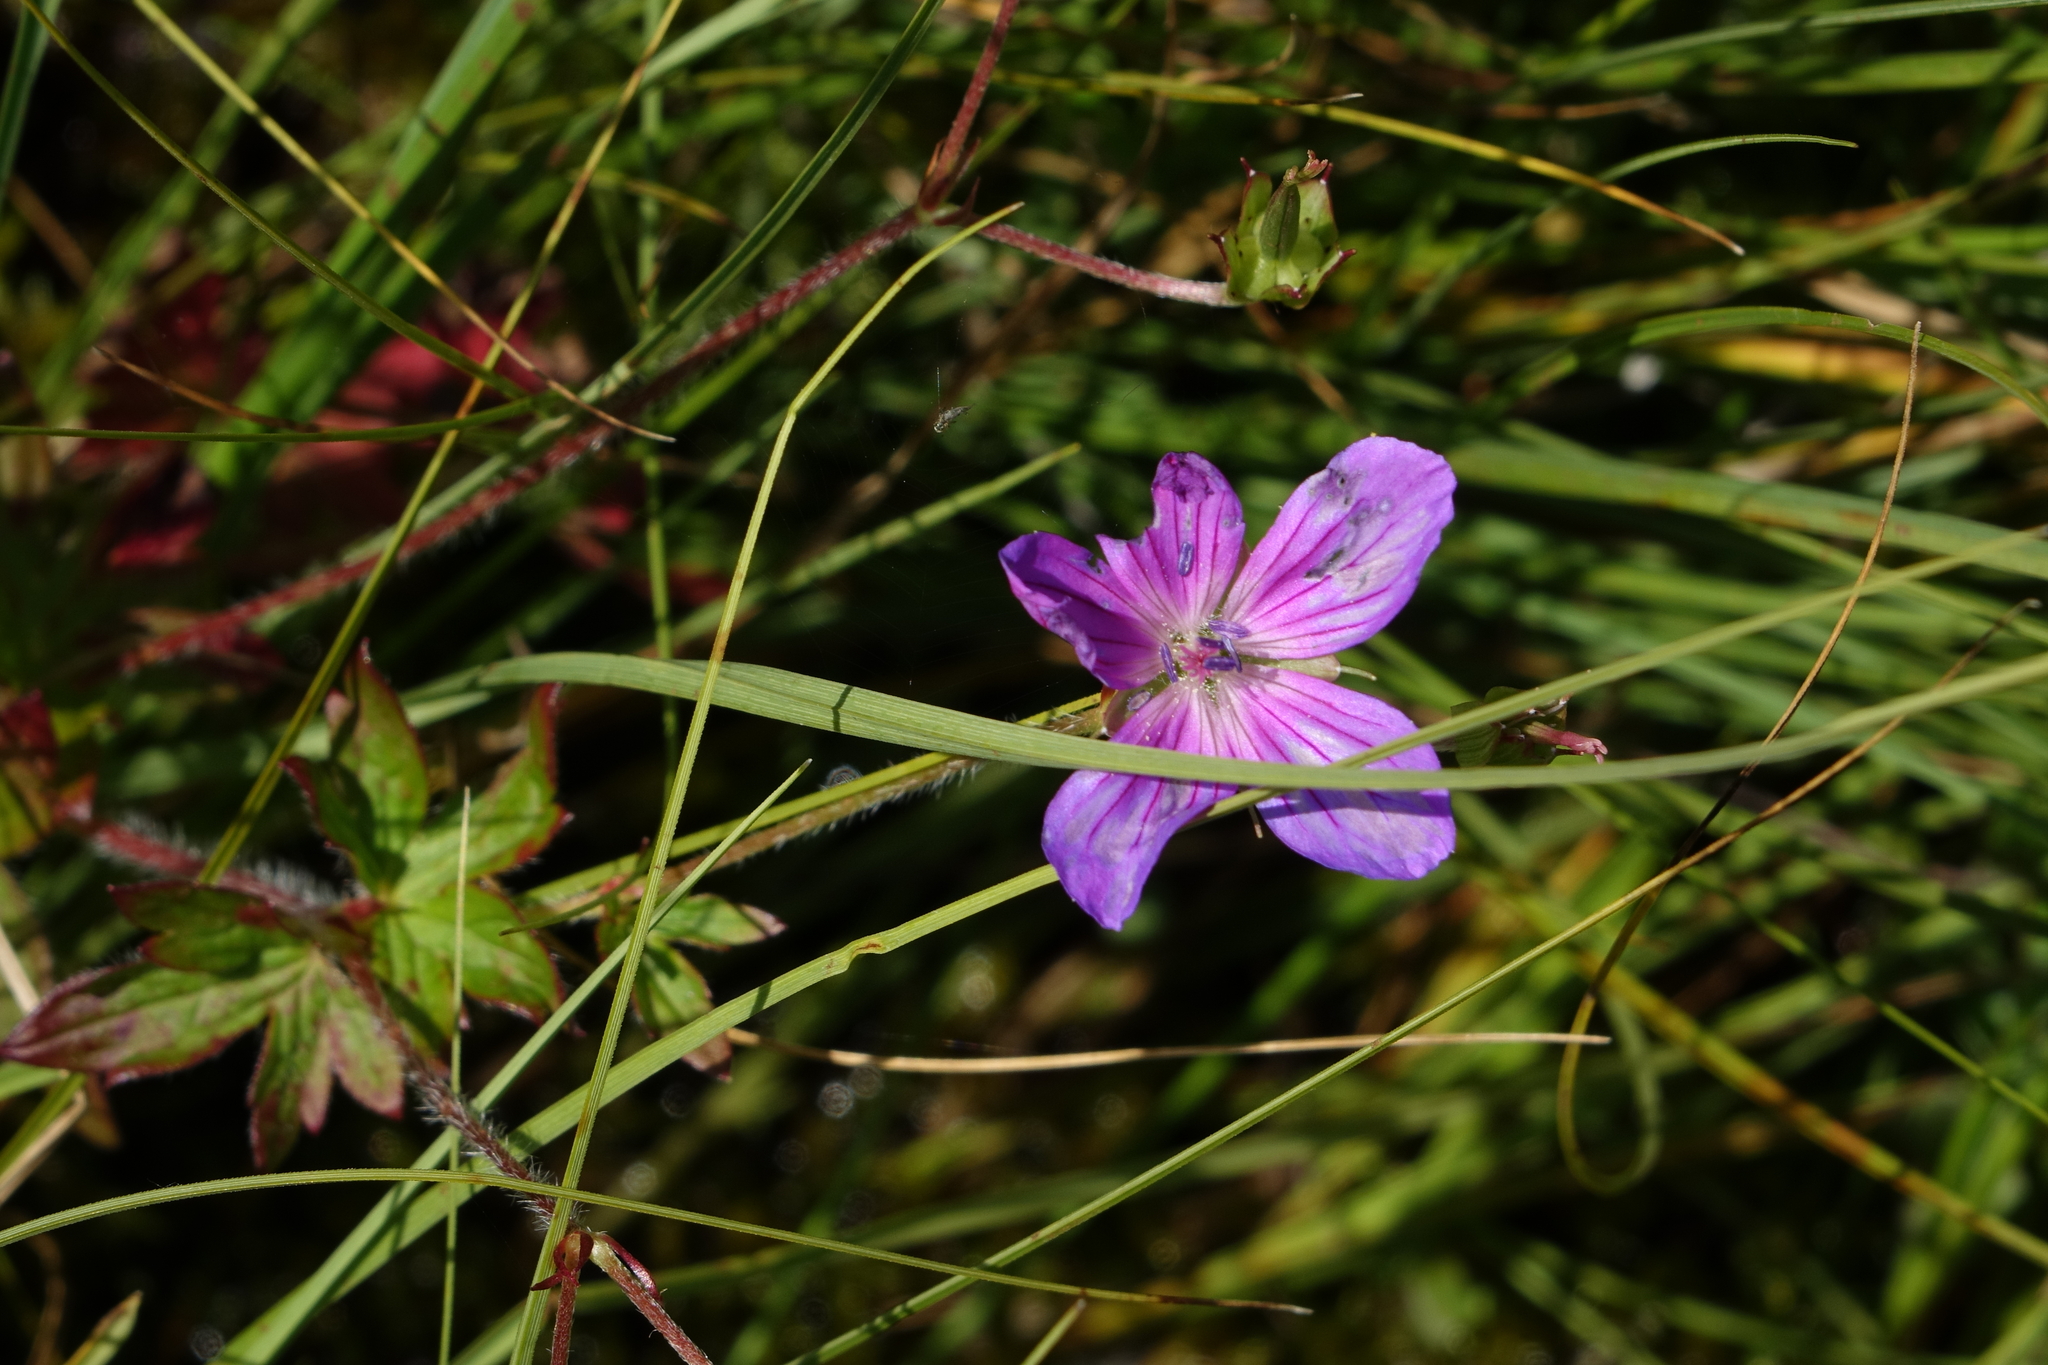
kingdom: Plantae
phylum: Tracheophyta
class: Magnoliopsida
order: Geraniales
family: Geraniaceae
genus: Geranium
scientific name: Geranium palustre
